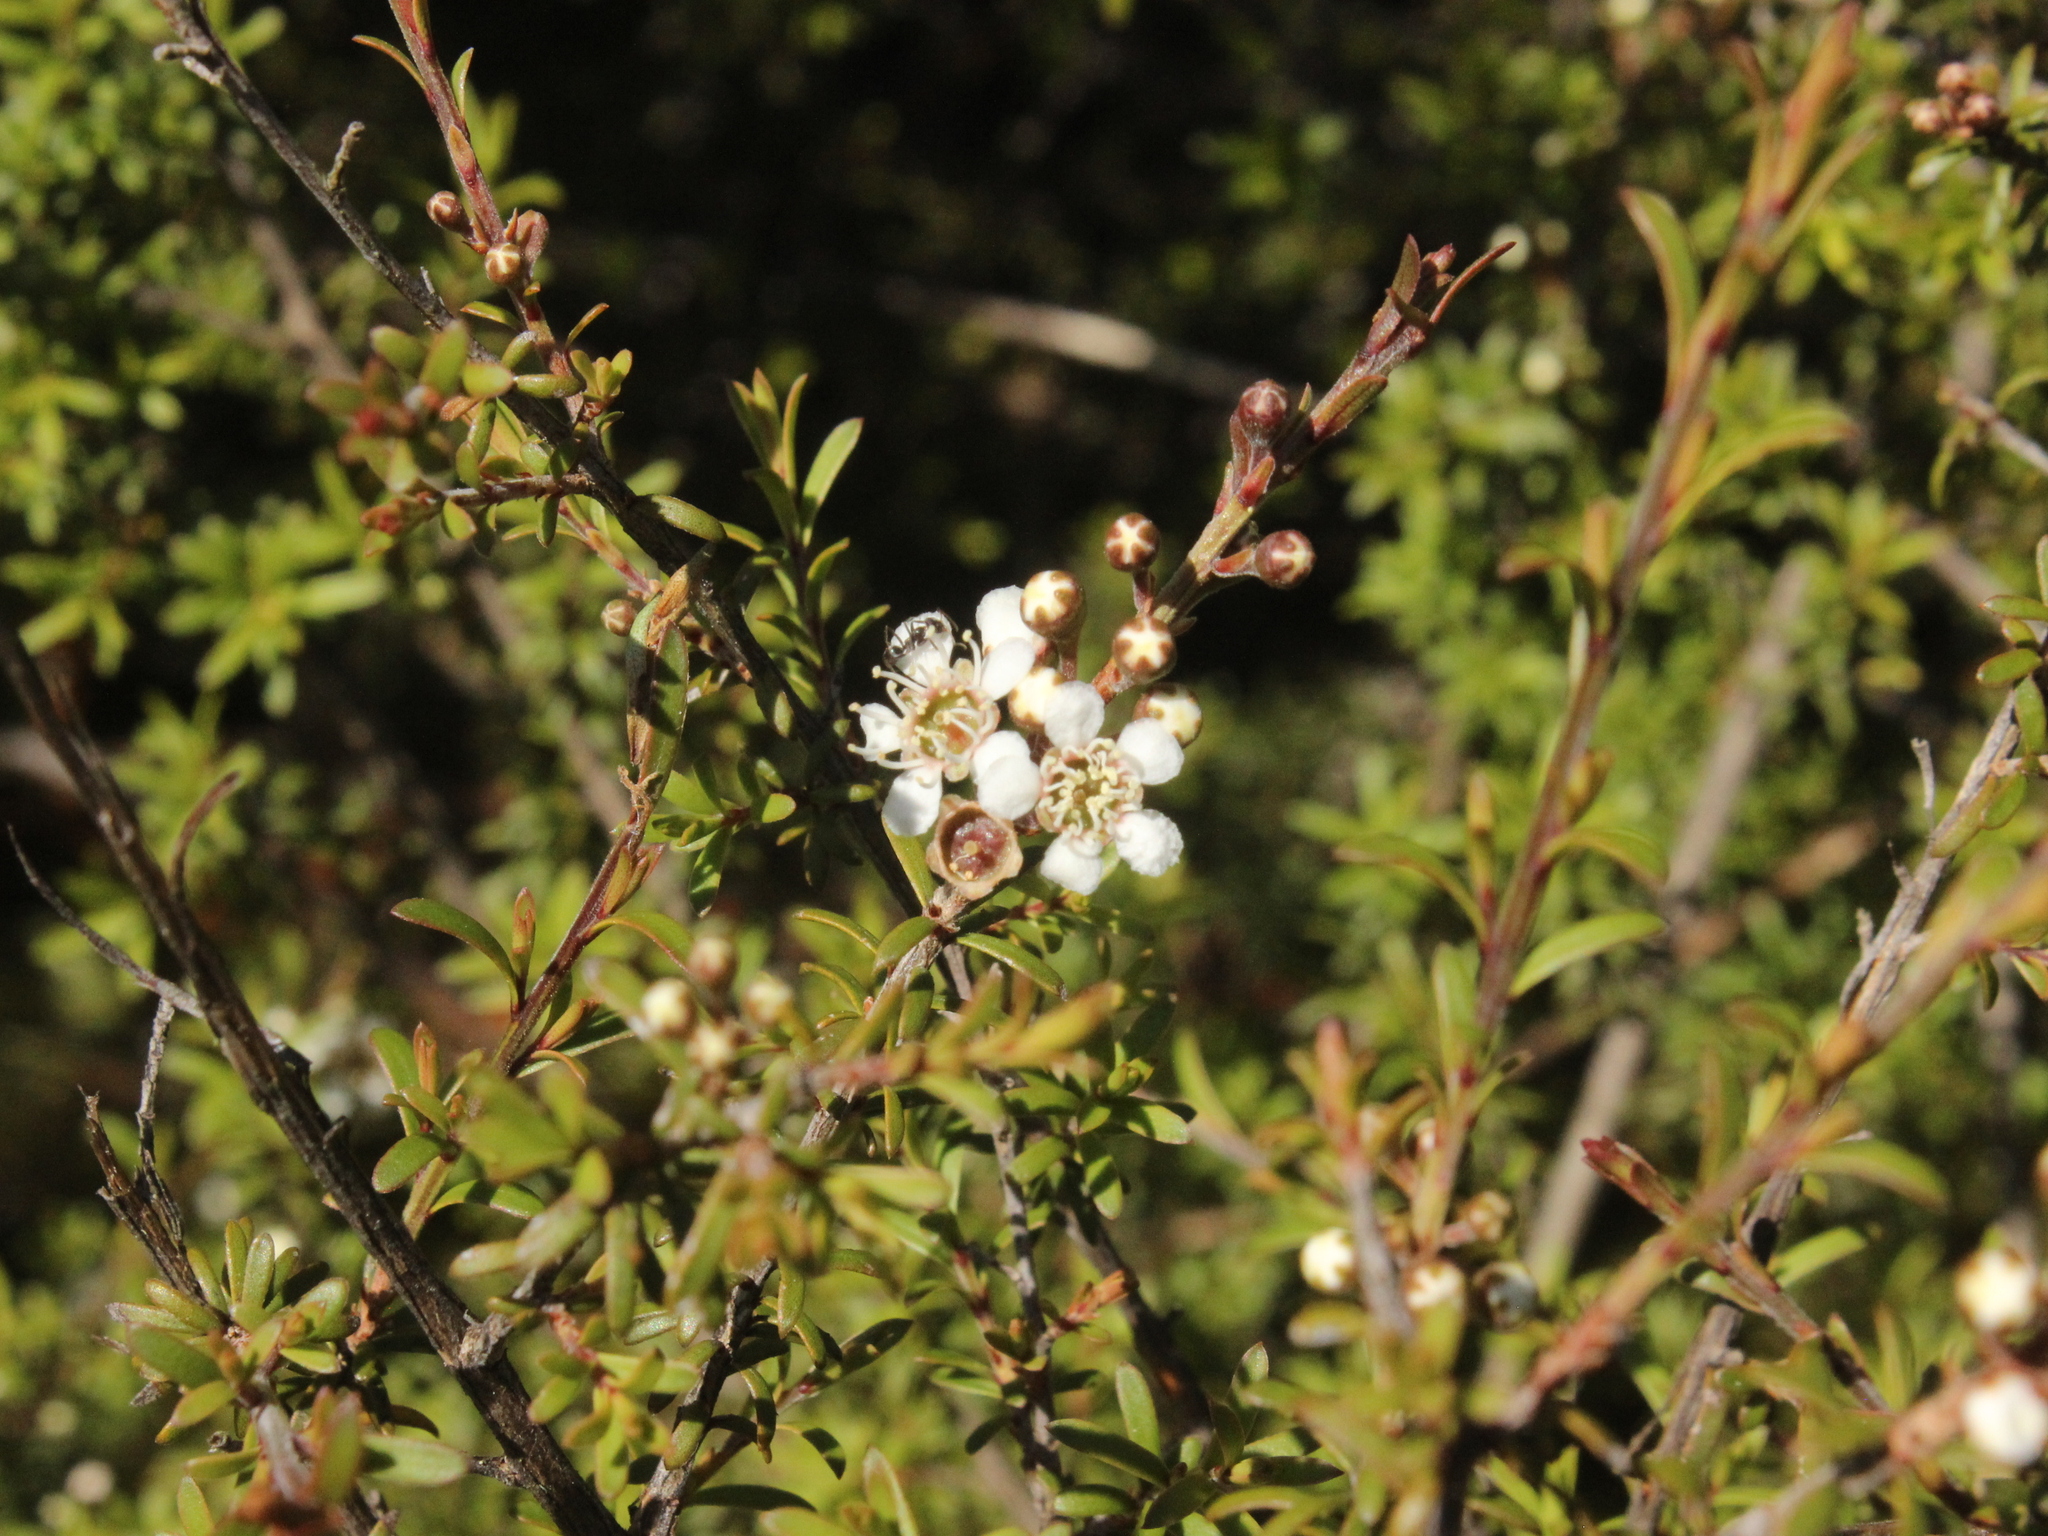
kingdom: Plantae
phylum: Tracheophyta
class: Magnoliopsida
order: Myrtales
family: Myrtaceae
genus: Leptospermum
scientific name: Leptospermum scoparium
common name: Broom tea-tree
